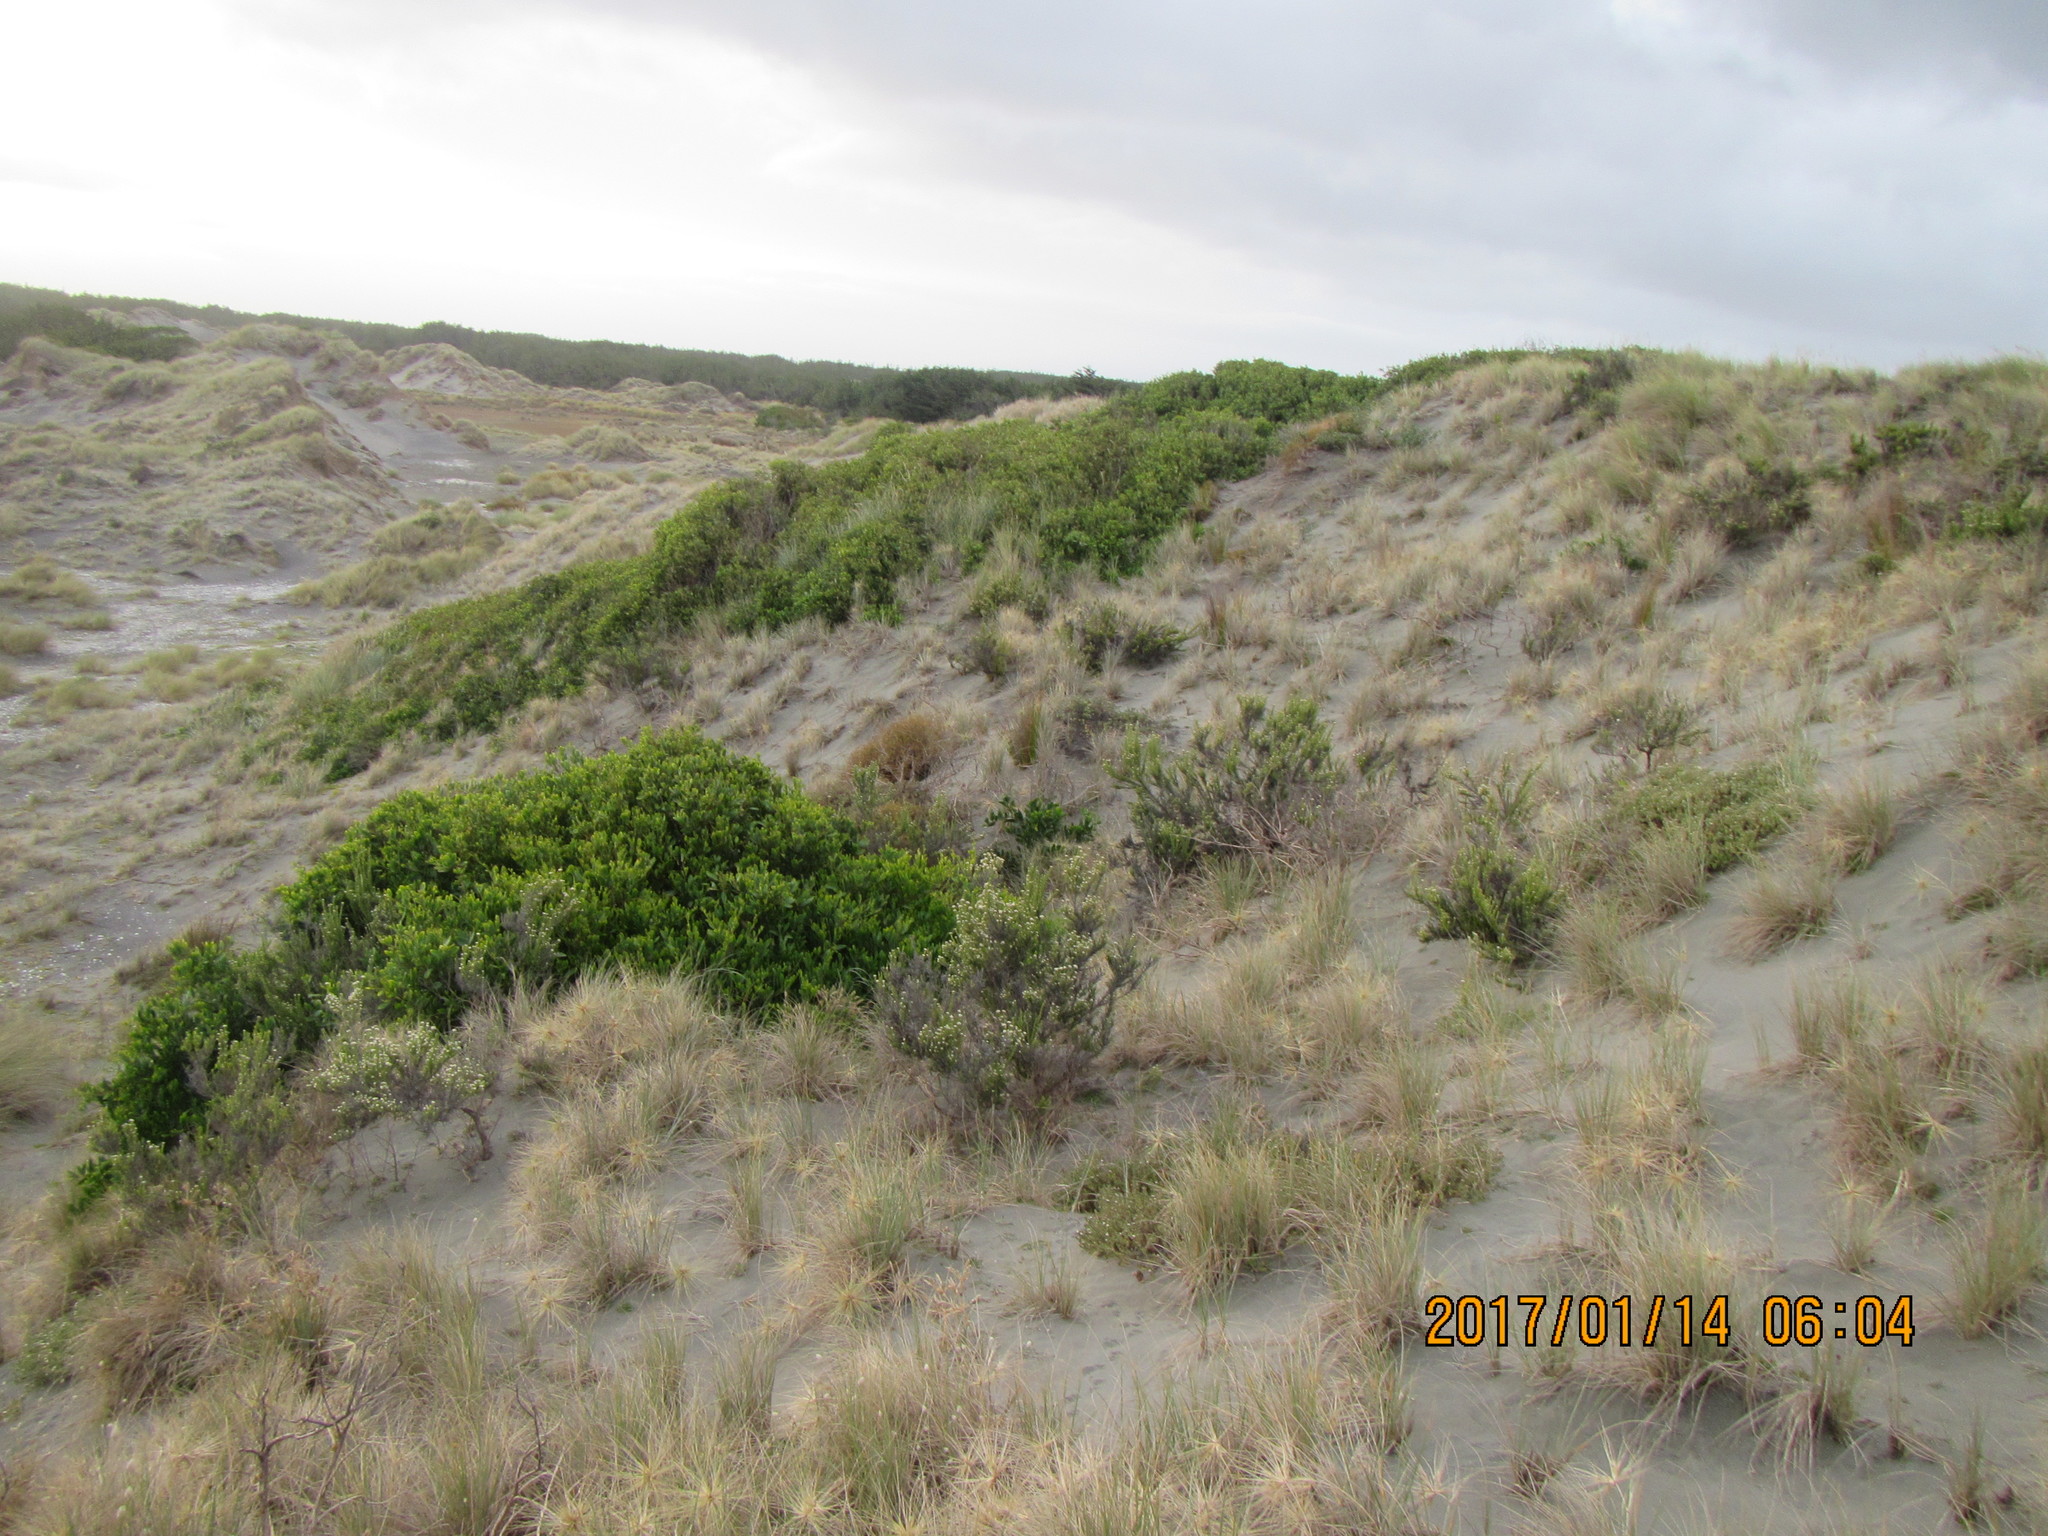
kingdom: Plantae
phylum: Tracheophyta
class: Magnoliopsida
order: Fabales
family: Fabaceae
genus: Acacia
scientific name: Acacia longifolia
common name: Sydney golden wattle
